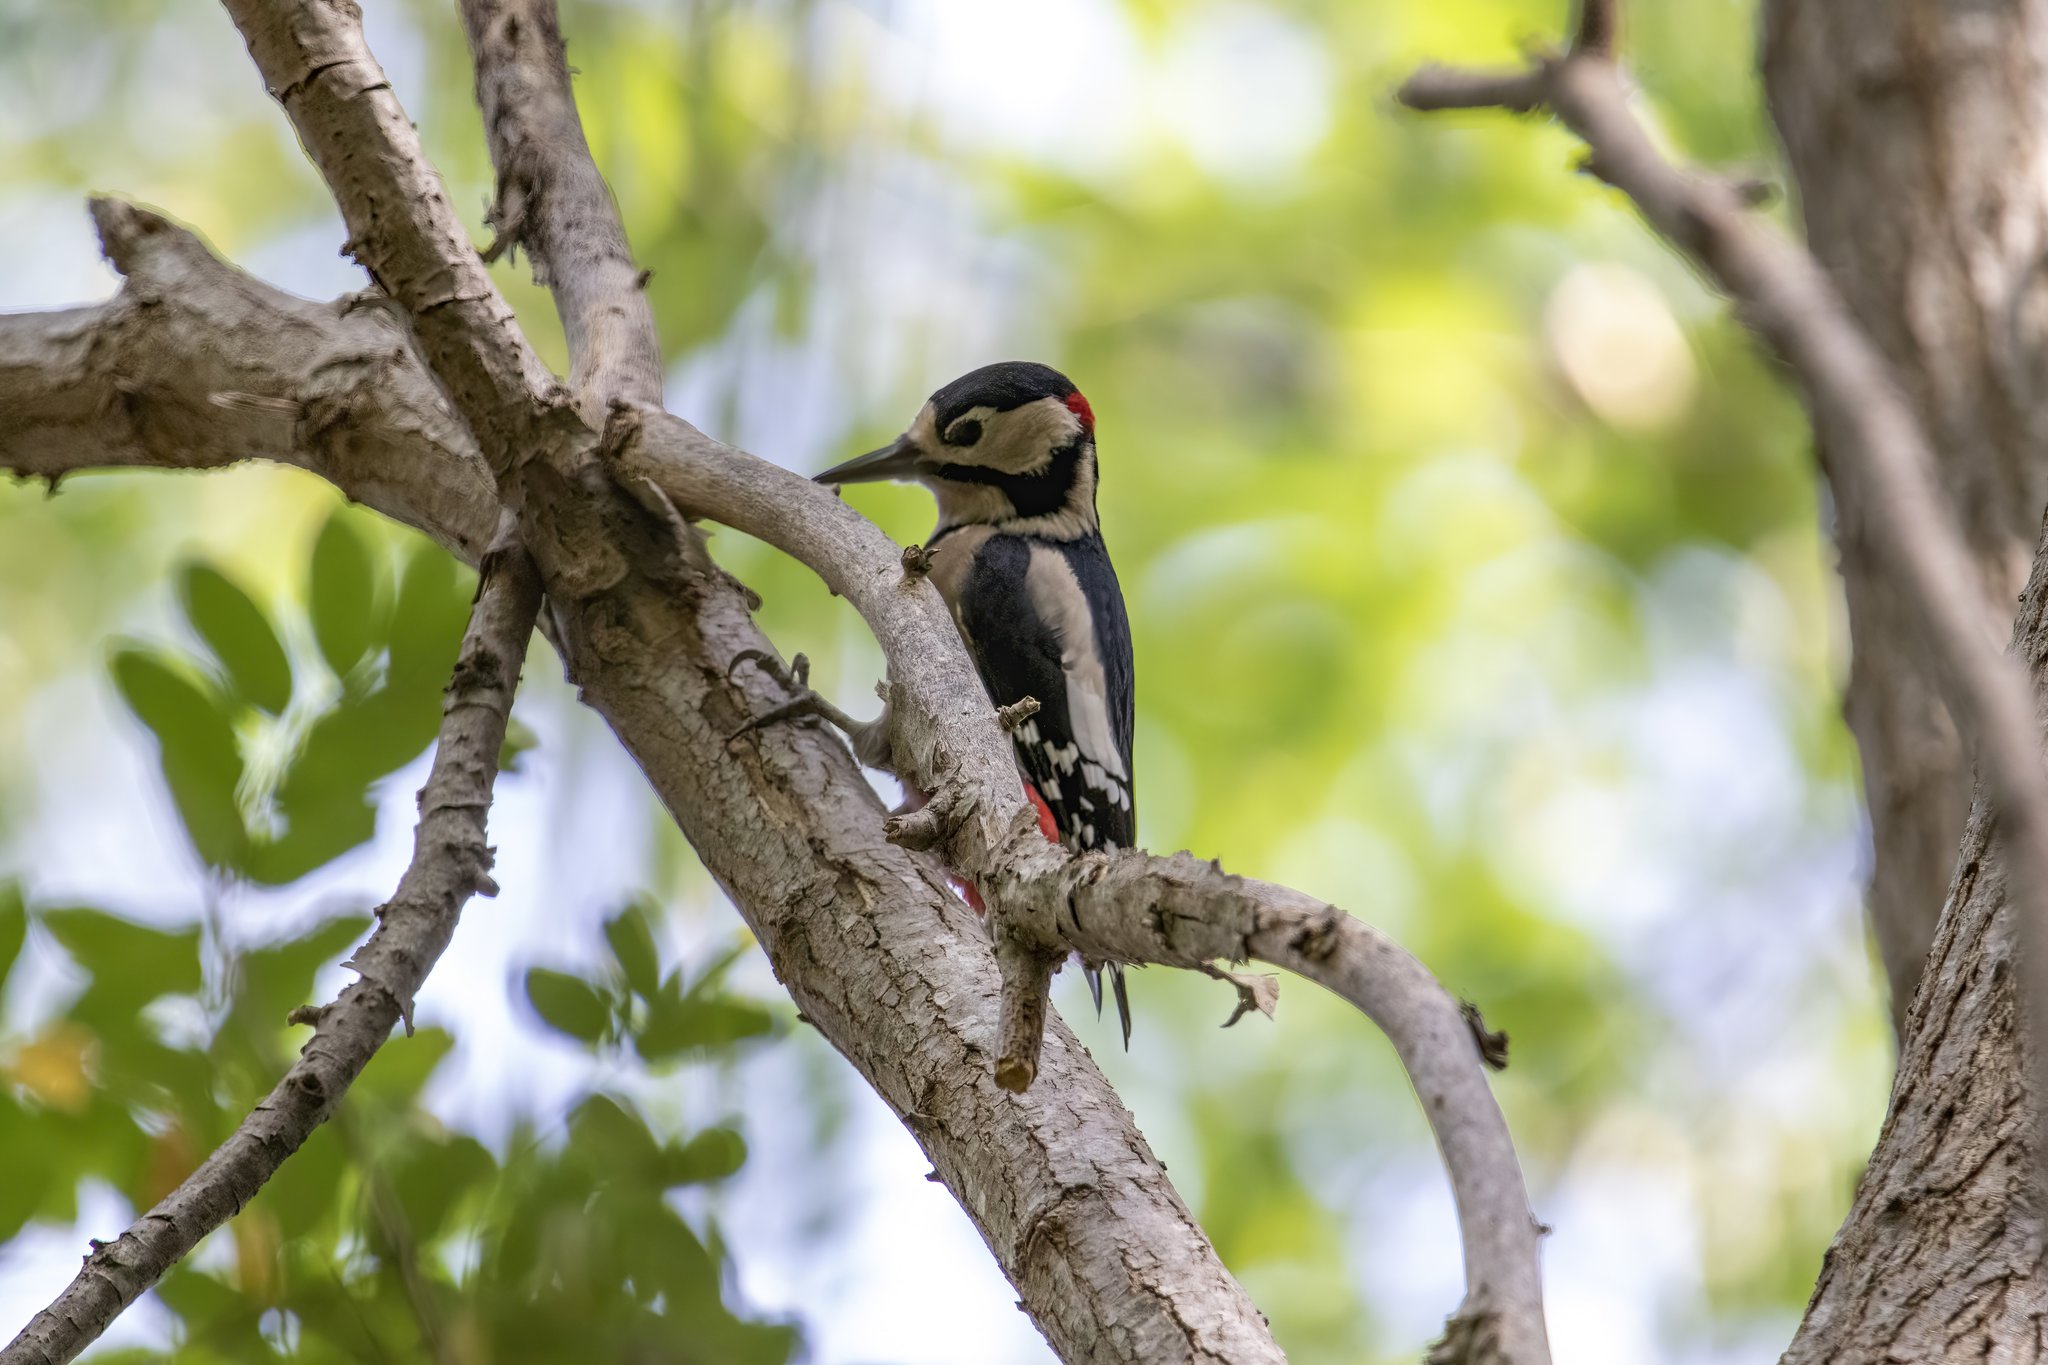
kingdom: Animalia
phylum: Chordata
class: Aves
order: Piciformes
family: Picidae
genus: Dendrocopos
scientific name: Dendrocopos major
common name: Great spotted woodpecker
